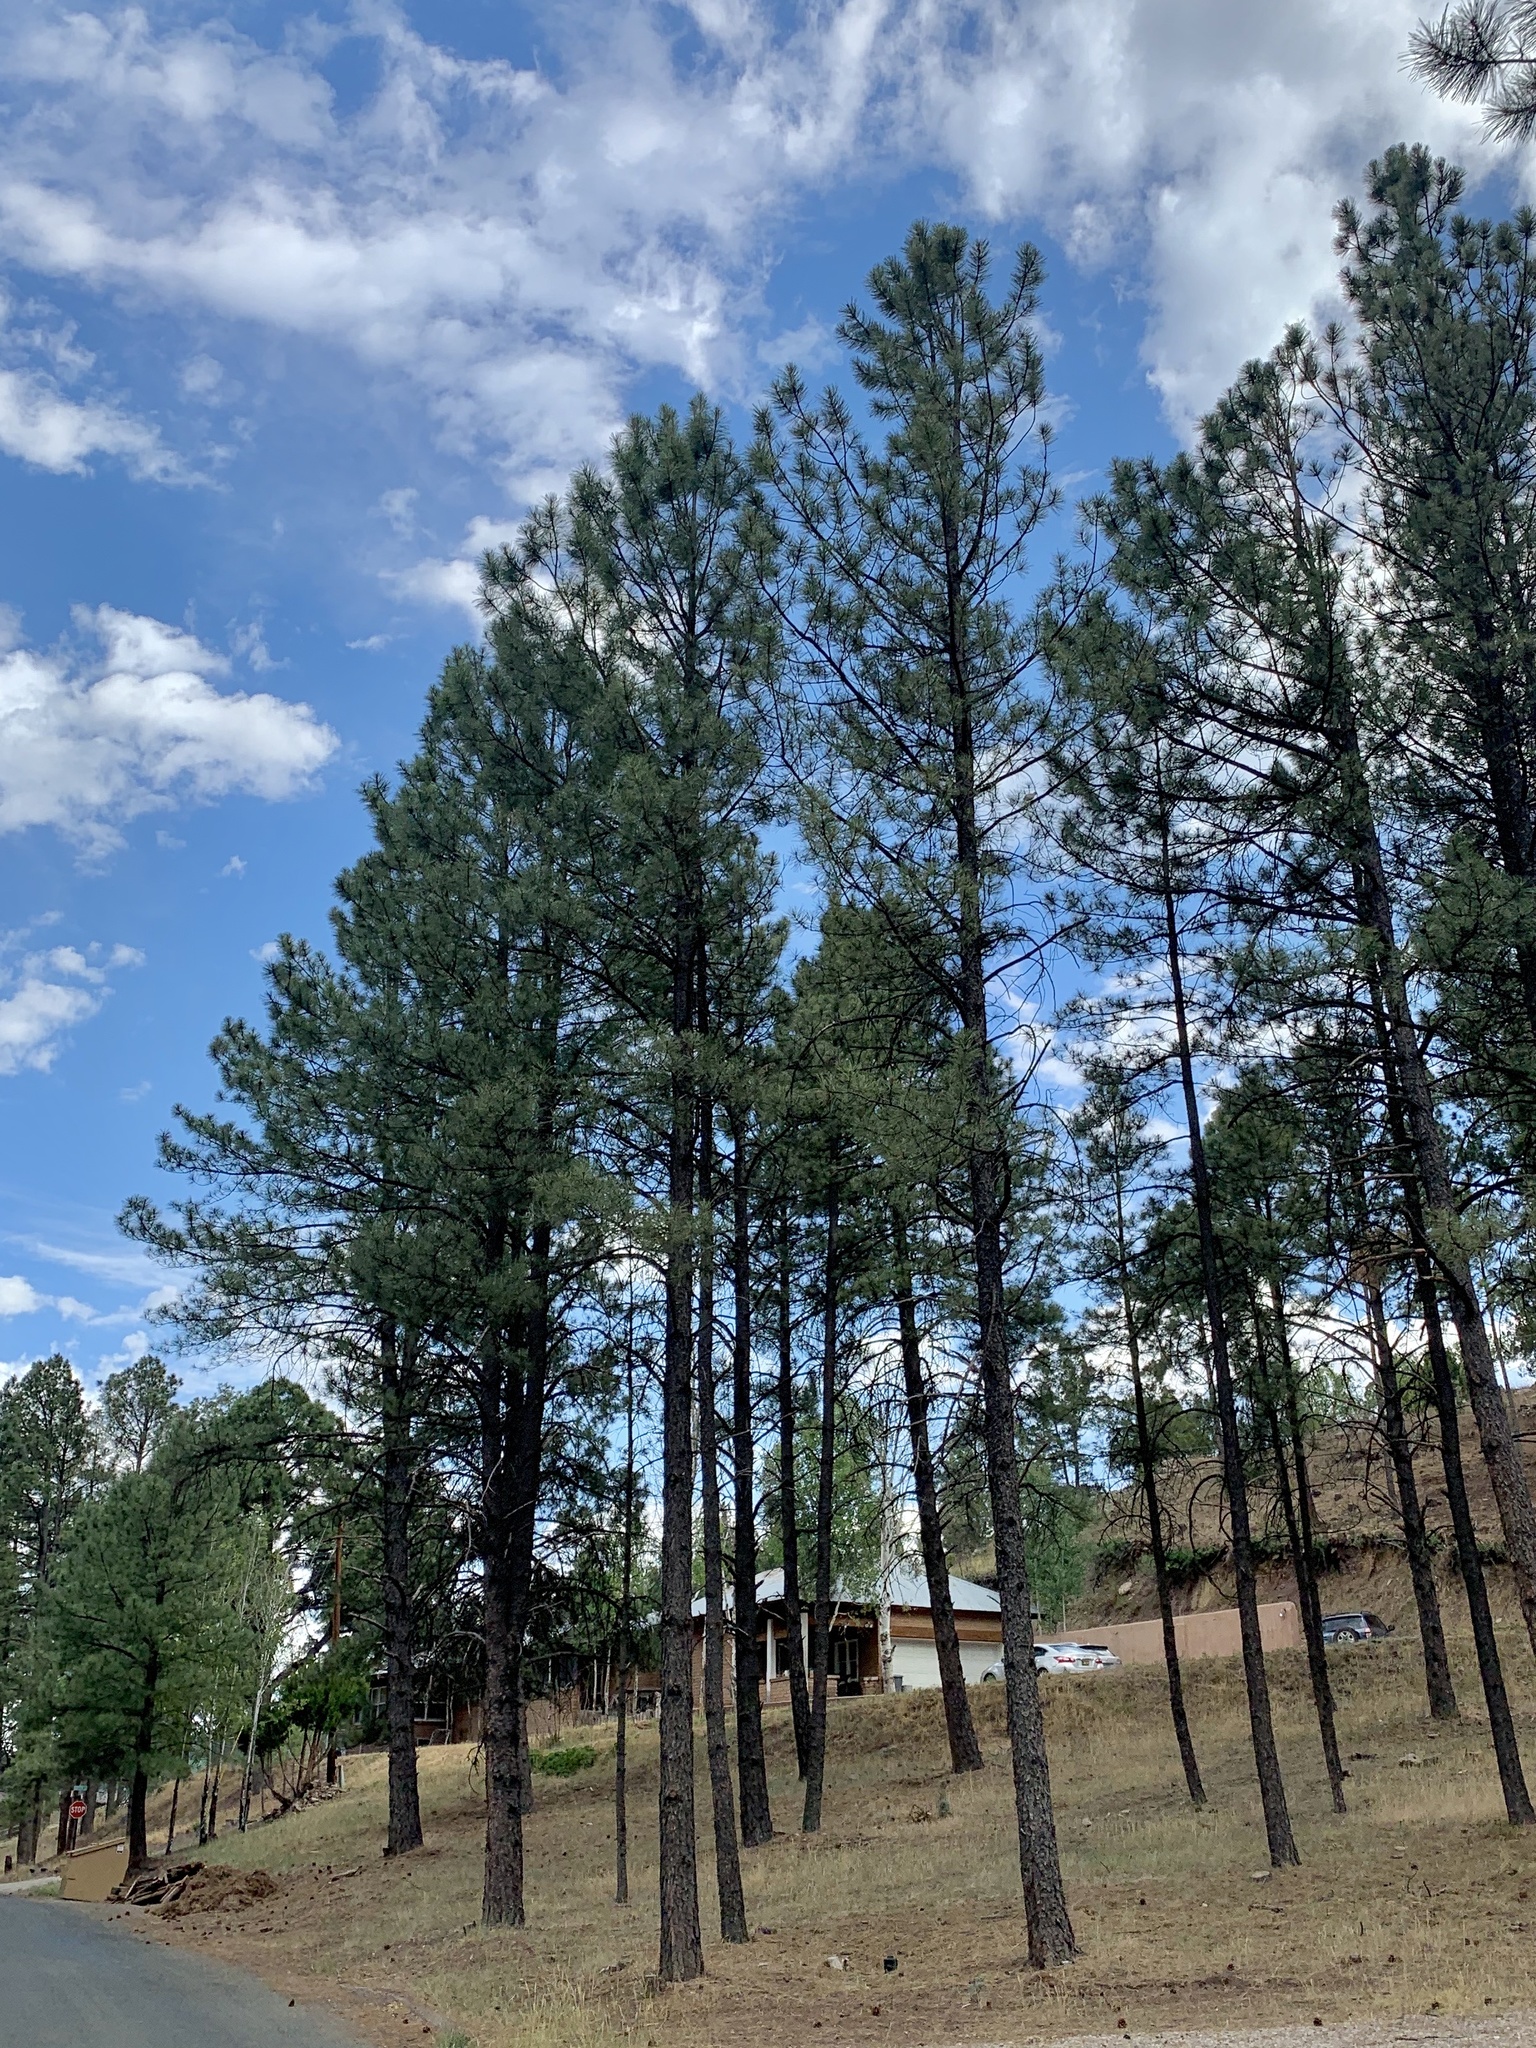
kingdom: Plantae
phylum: Tracheophyta
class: Pinopsida
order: Pinales
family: Pinaceae
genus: Pinus
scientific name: Pinus ponderosa
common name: Western yellow-pine
